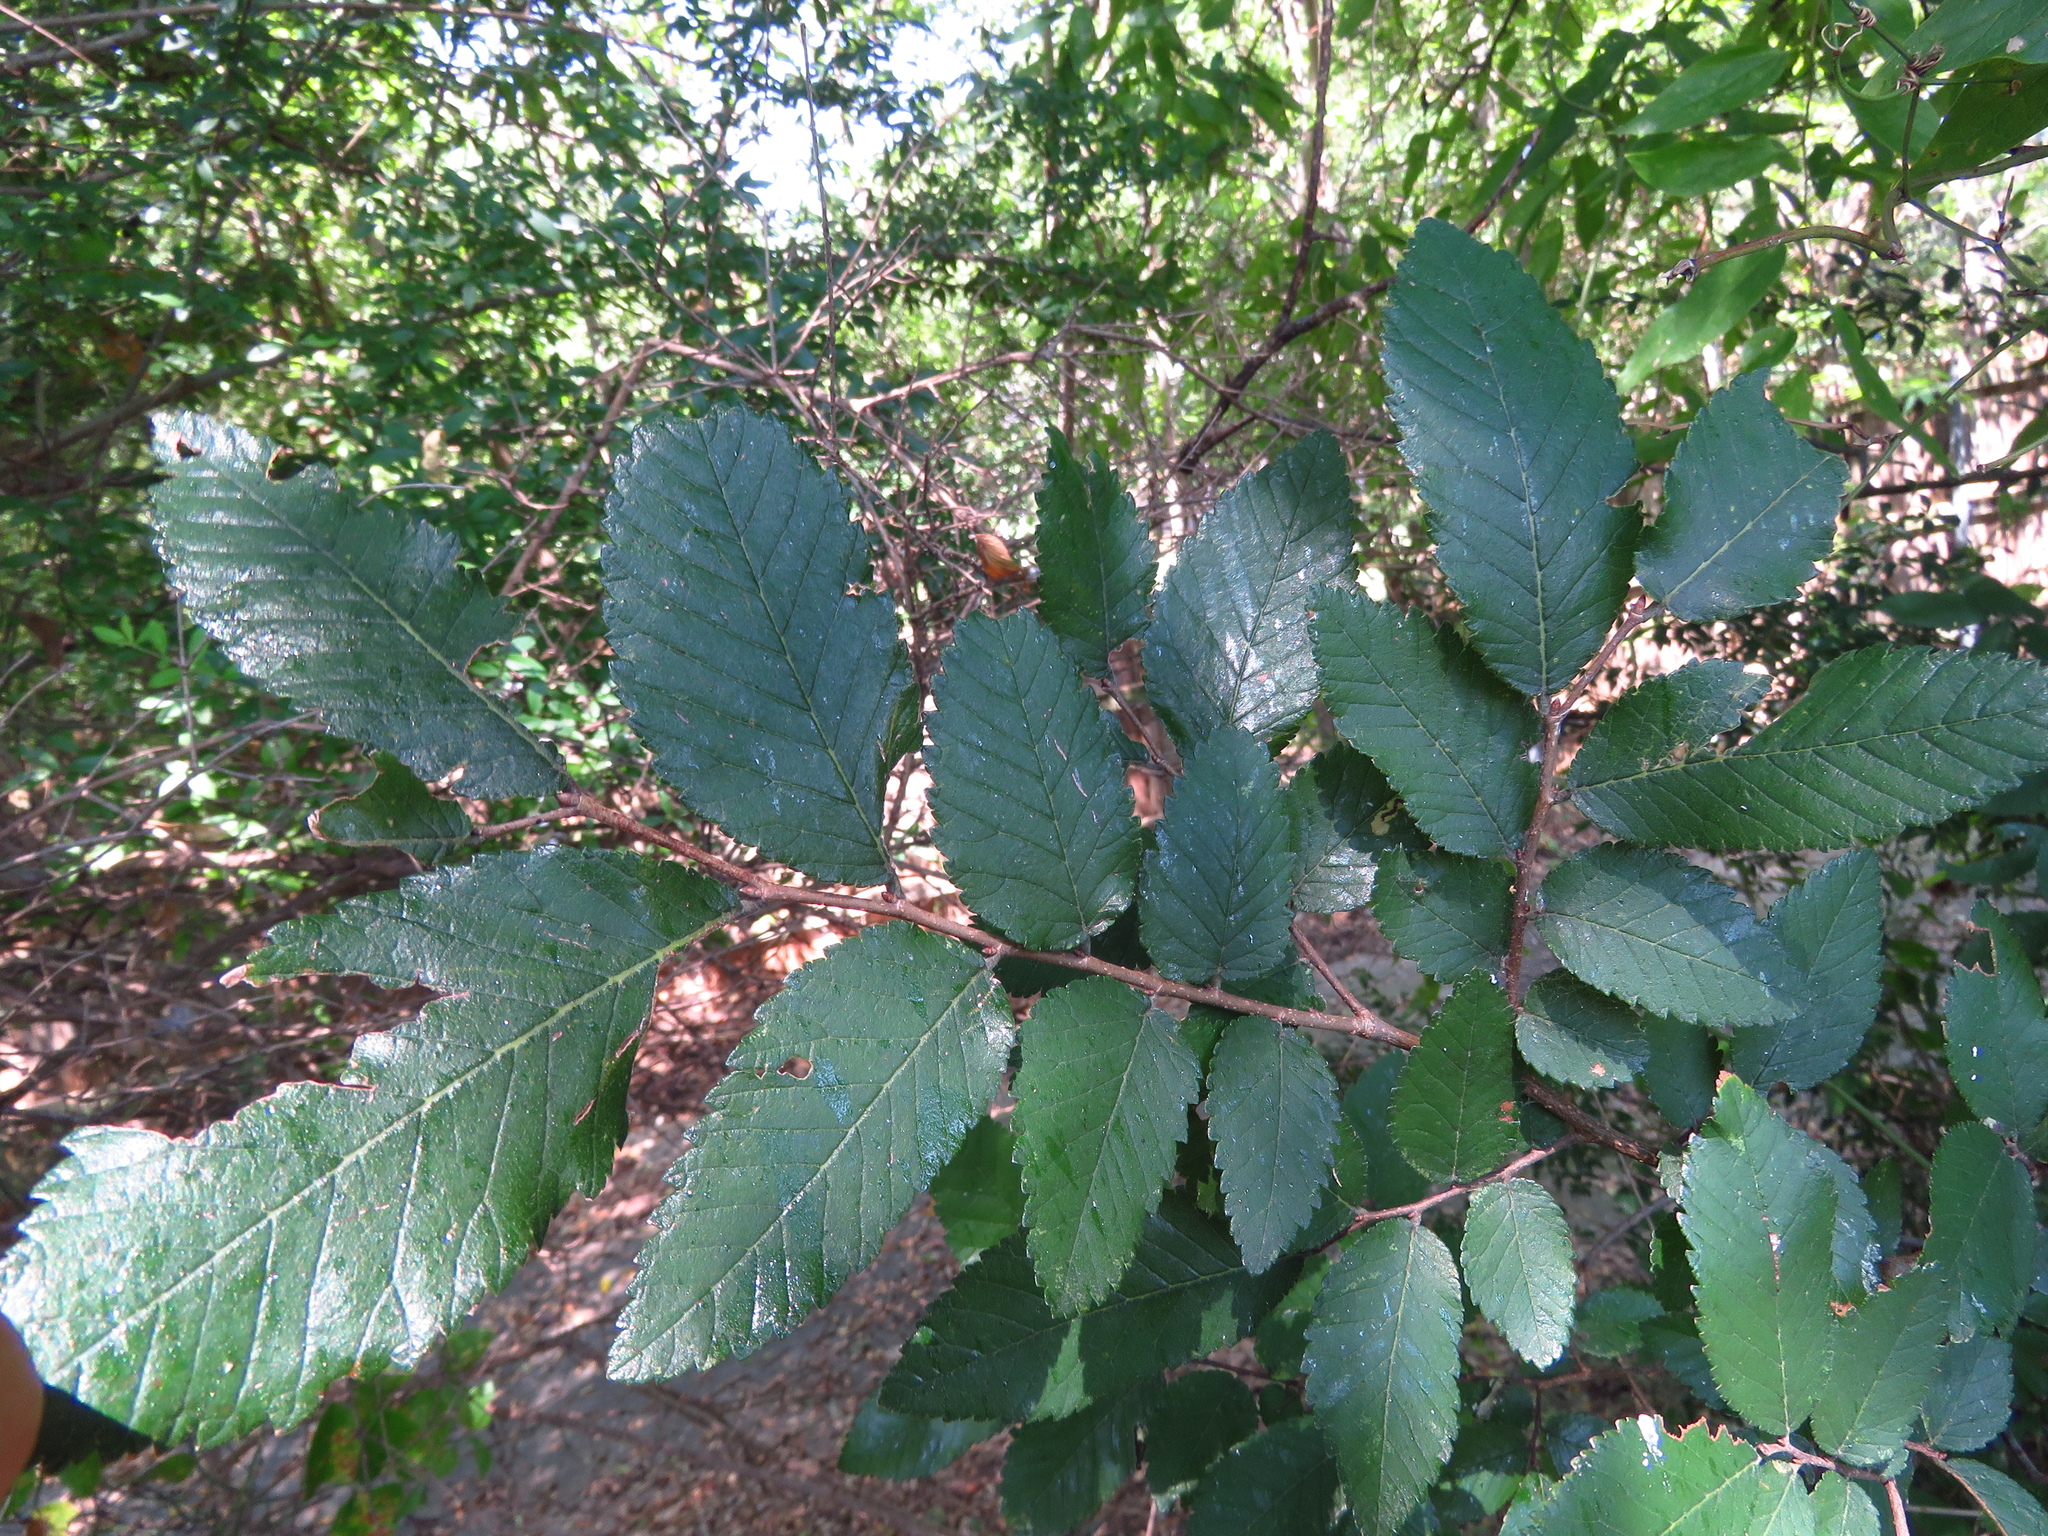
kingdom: Plantae
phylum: Tracheophyta
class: Magnoliopsida
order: Rosales
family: Ulmaceae
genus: Ulmus
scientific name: Ulmus crassifolia
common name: Basket elm
